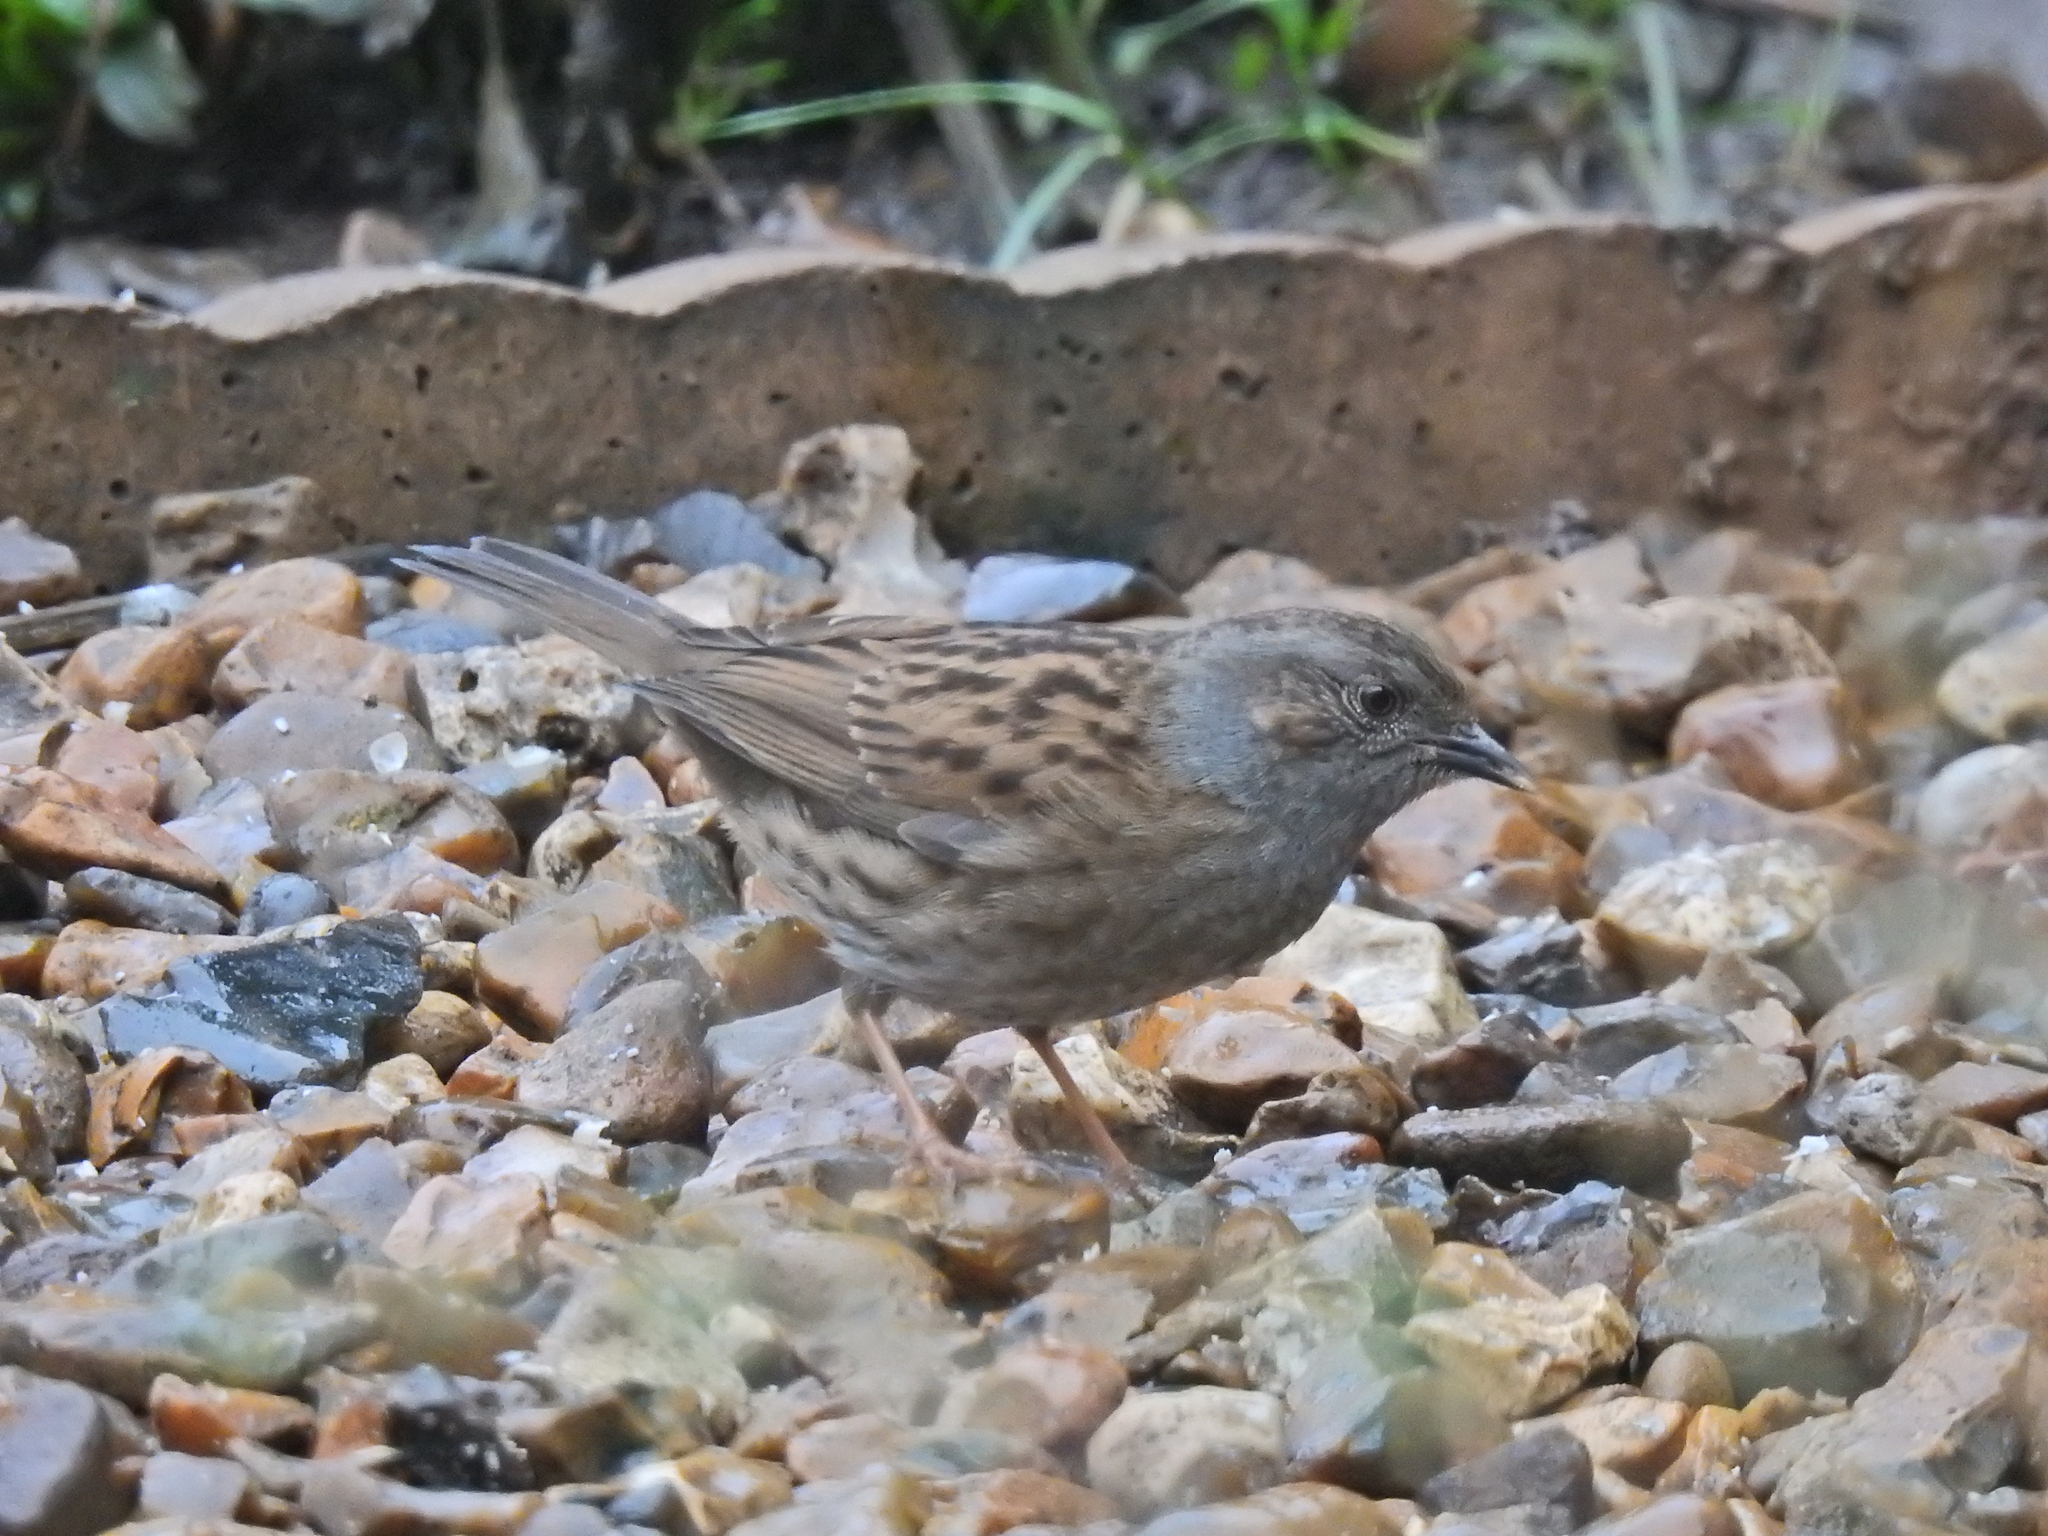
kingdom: Animalia
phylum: Chordata
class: Aves
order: Passeriformes
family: Prunellidae
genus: Prunella
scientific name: Prunella modularis
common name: Dunnock
